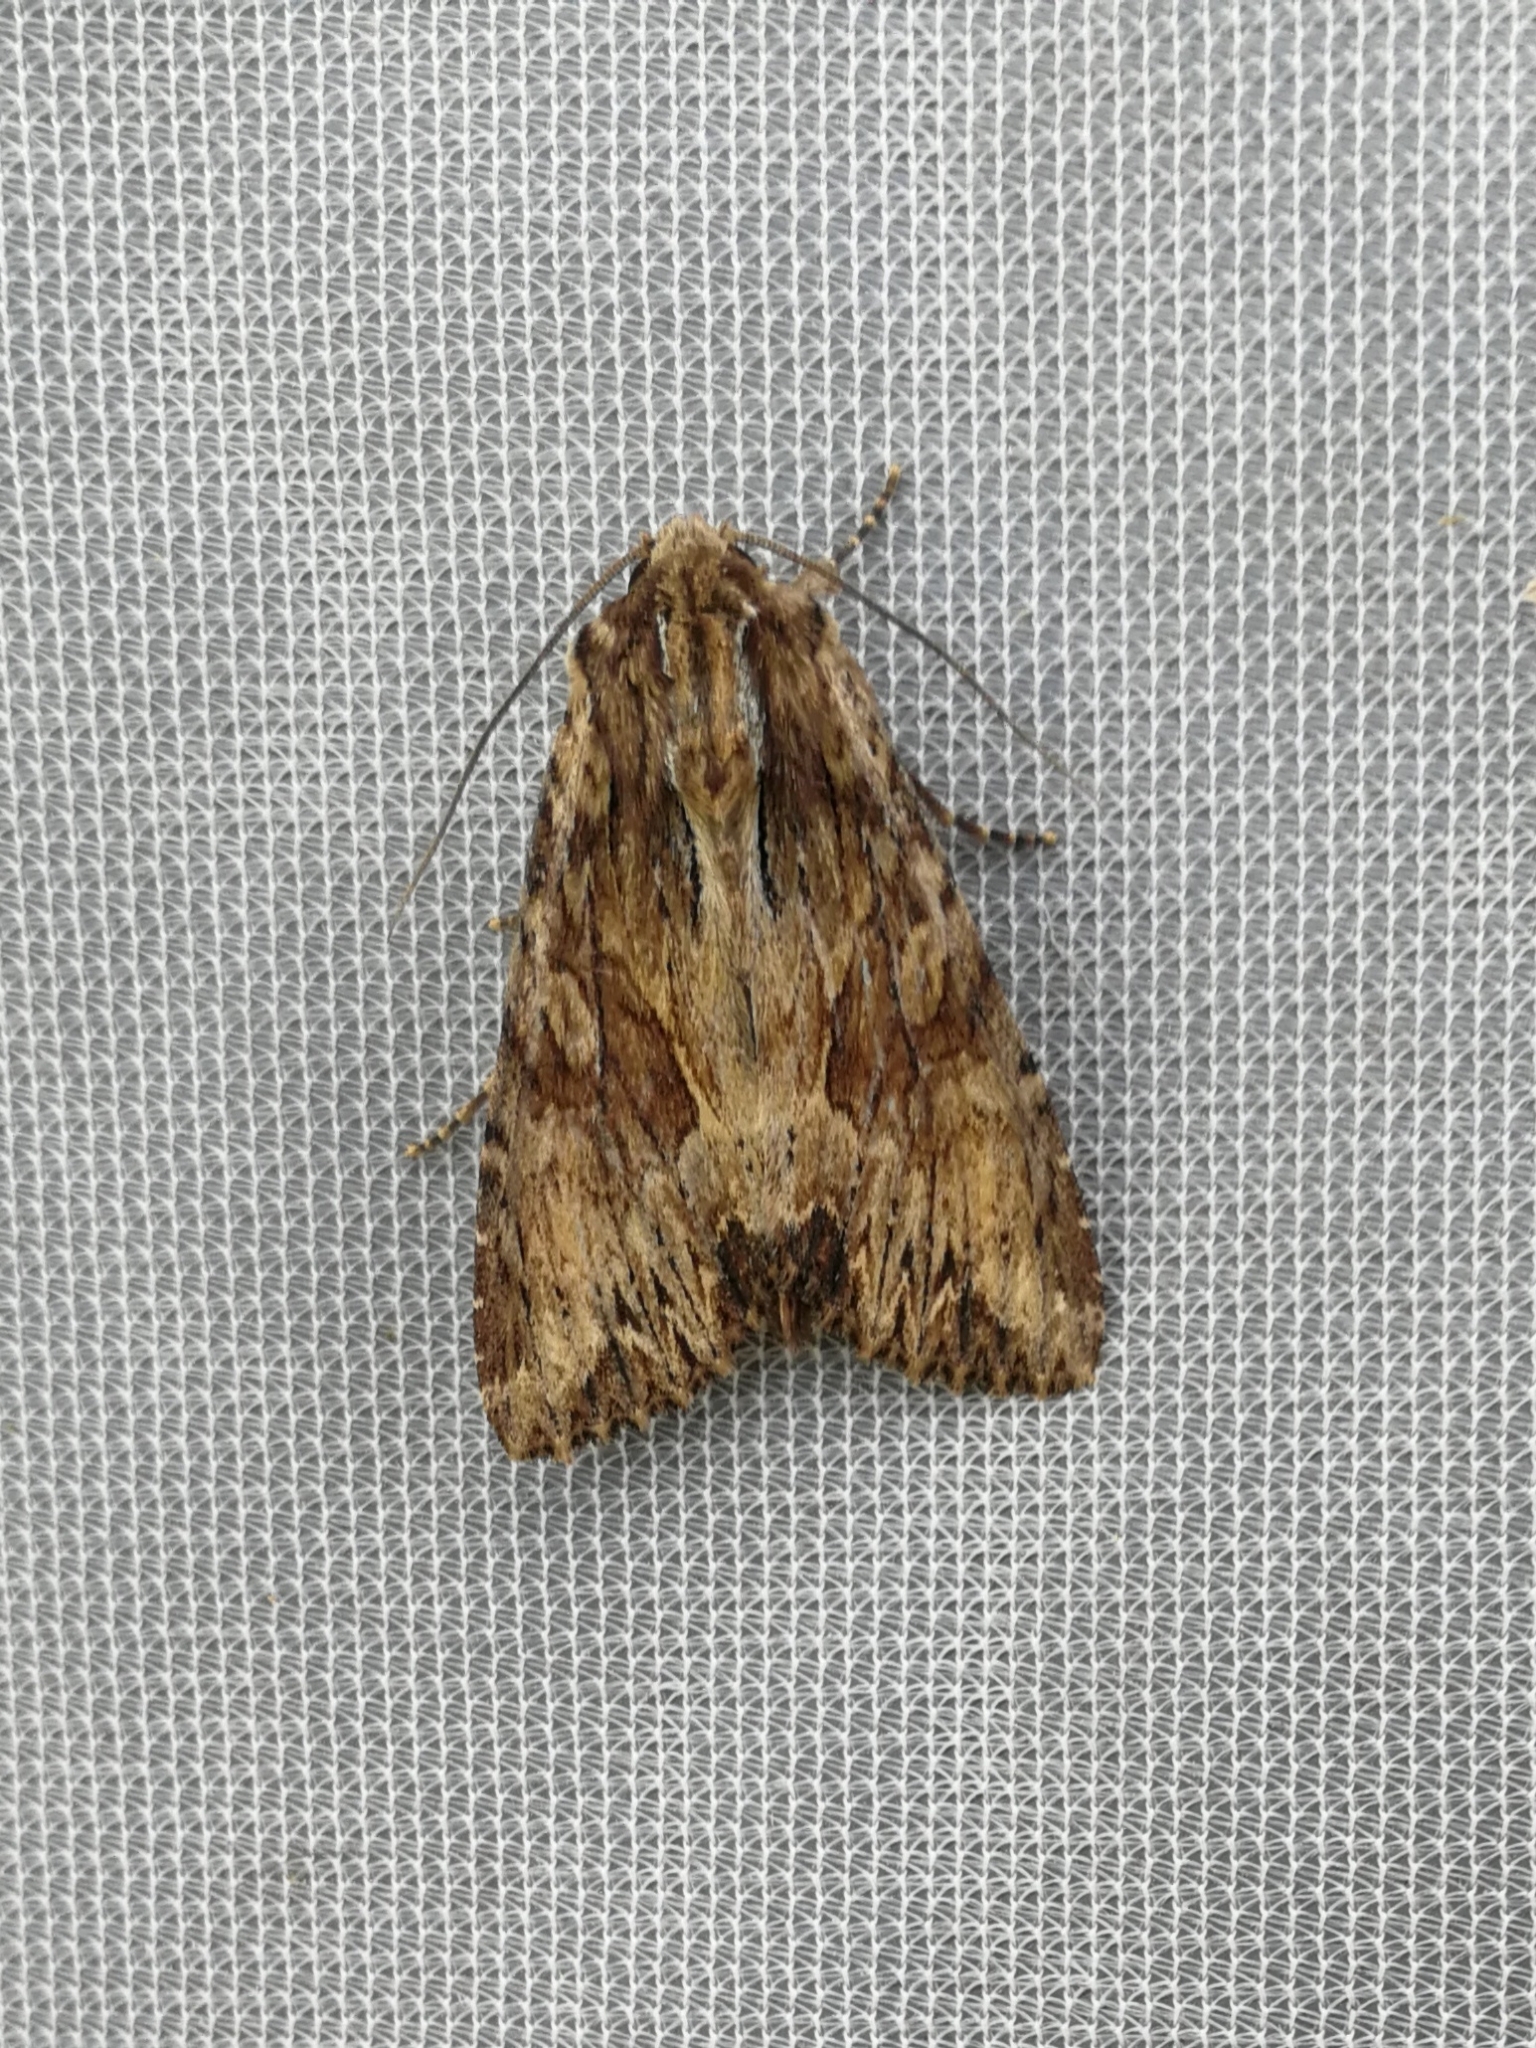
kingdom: Animalia
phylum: Arthropoda
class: Insecta
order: Lepidoptera
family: Noctuidae
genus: Apamea
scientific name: Apamea monoglypha
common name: Dark arches
